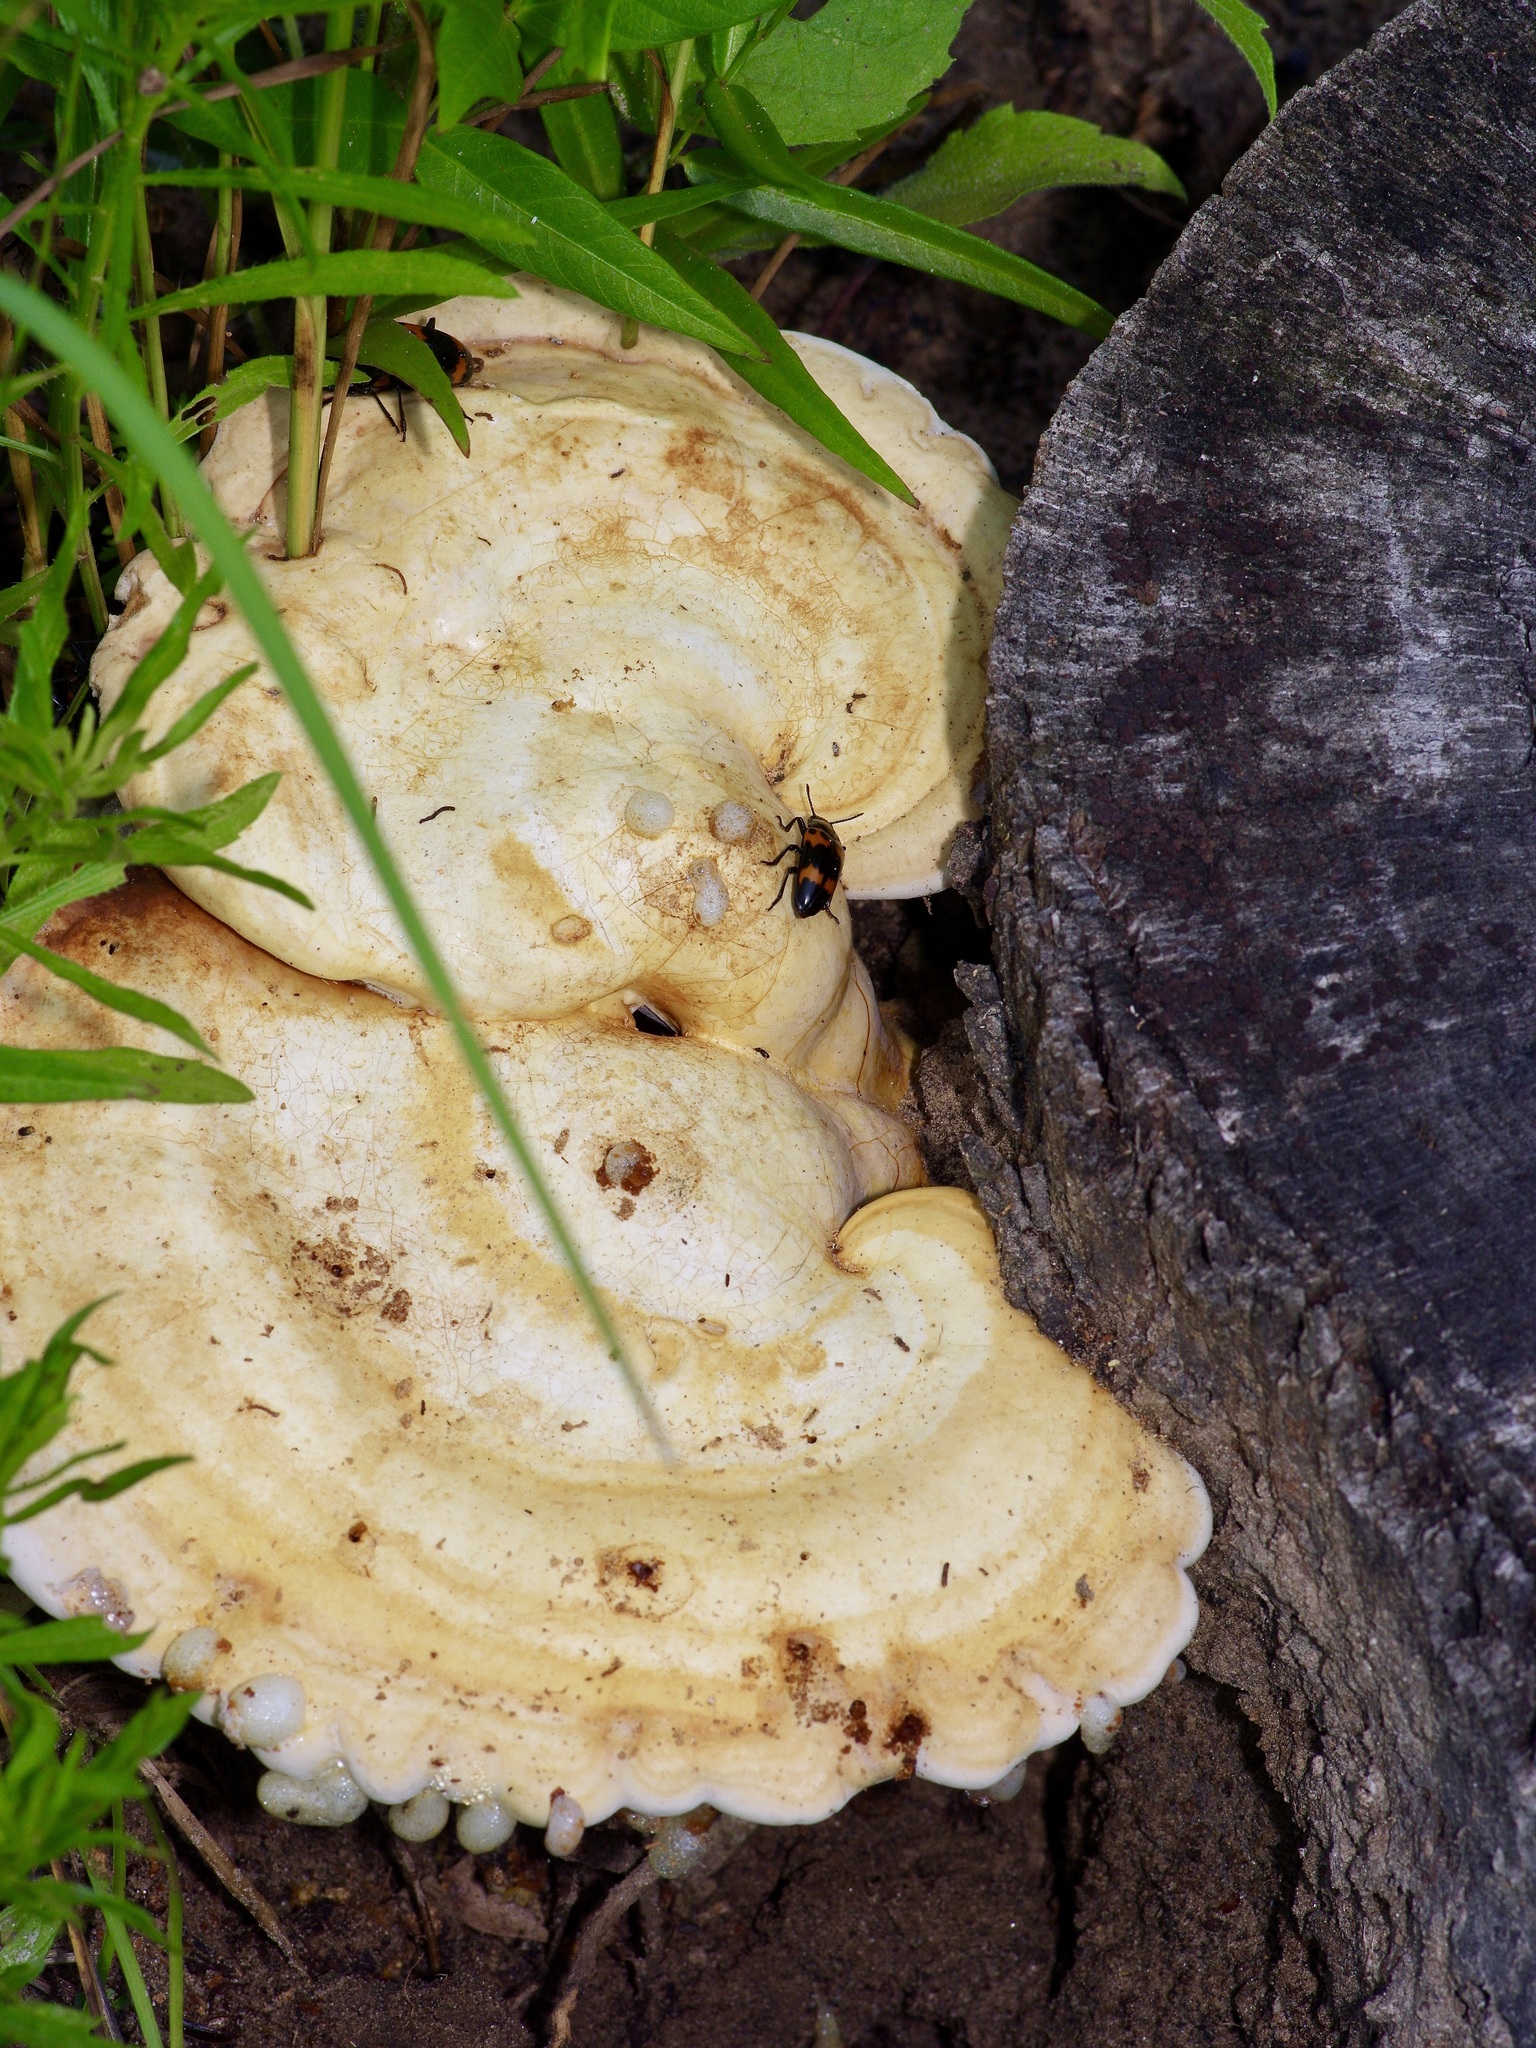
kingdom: Animalia
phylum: Arthropoda
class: Insecta
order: Coleoptera
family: Erotylidae
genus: Megalodacne
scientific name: Megalodacne heros
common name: Pleasing fungus beetle
